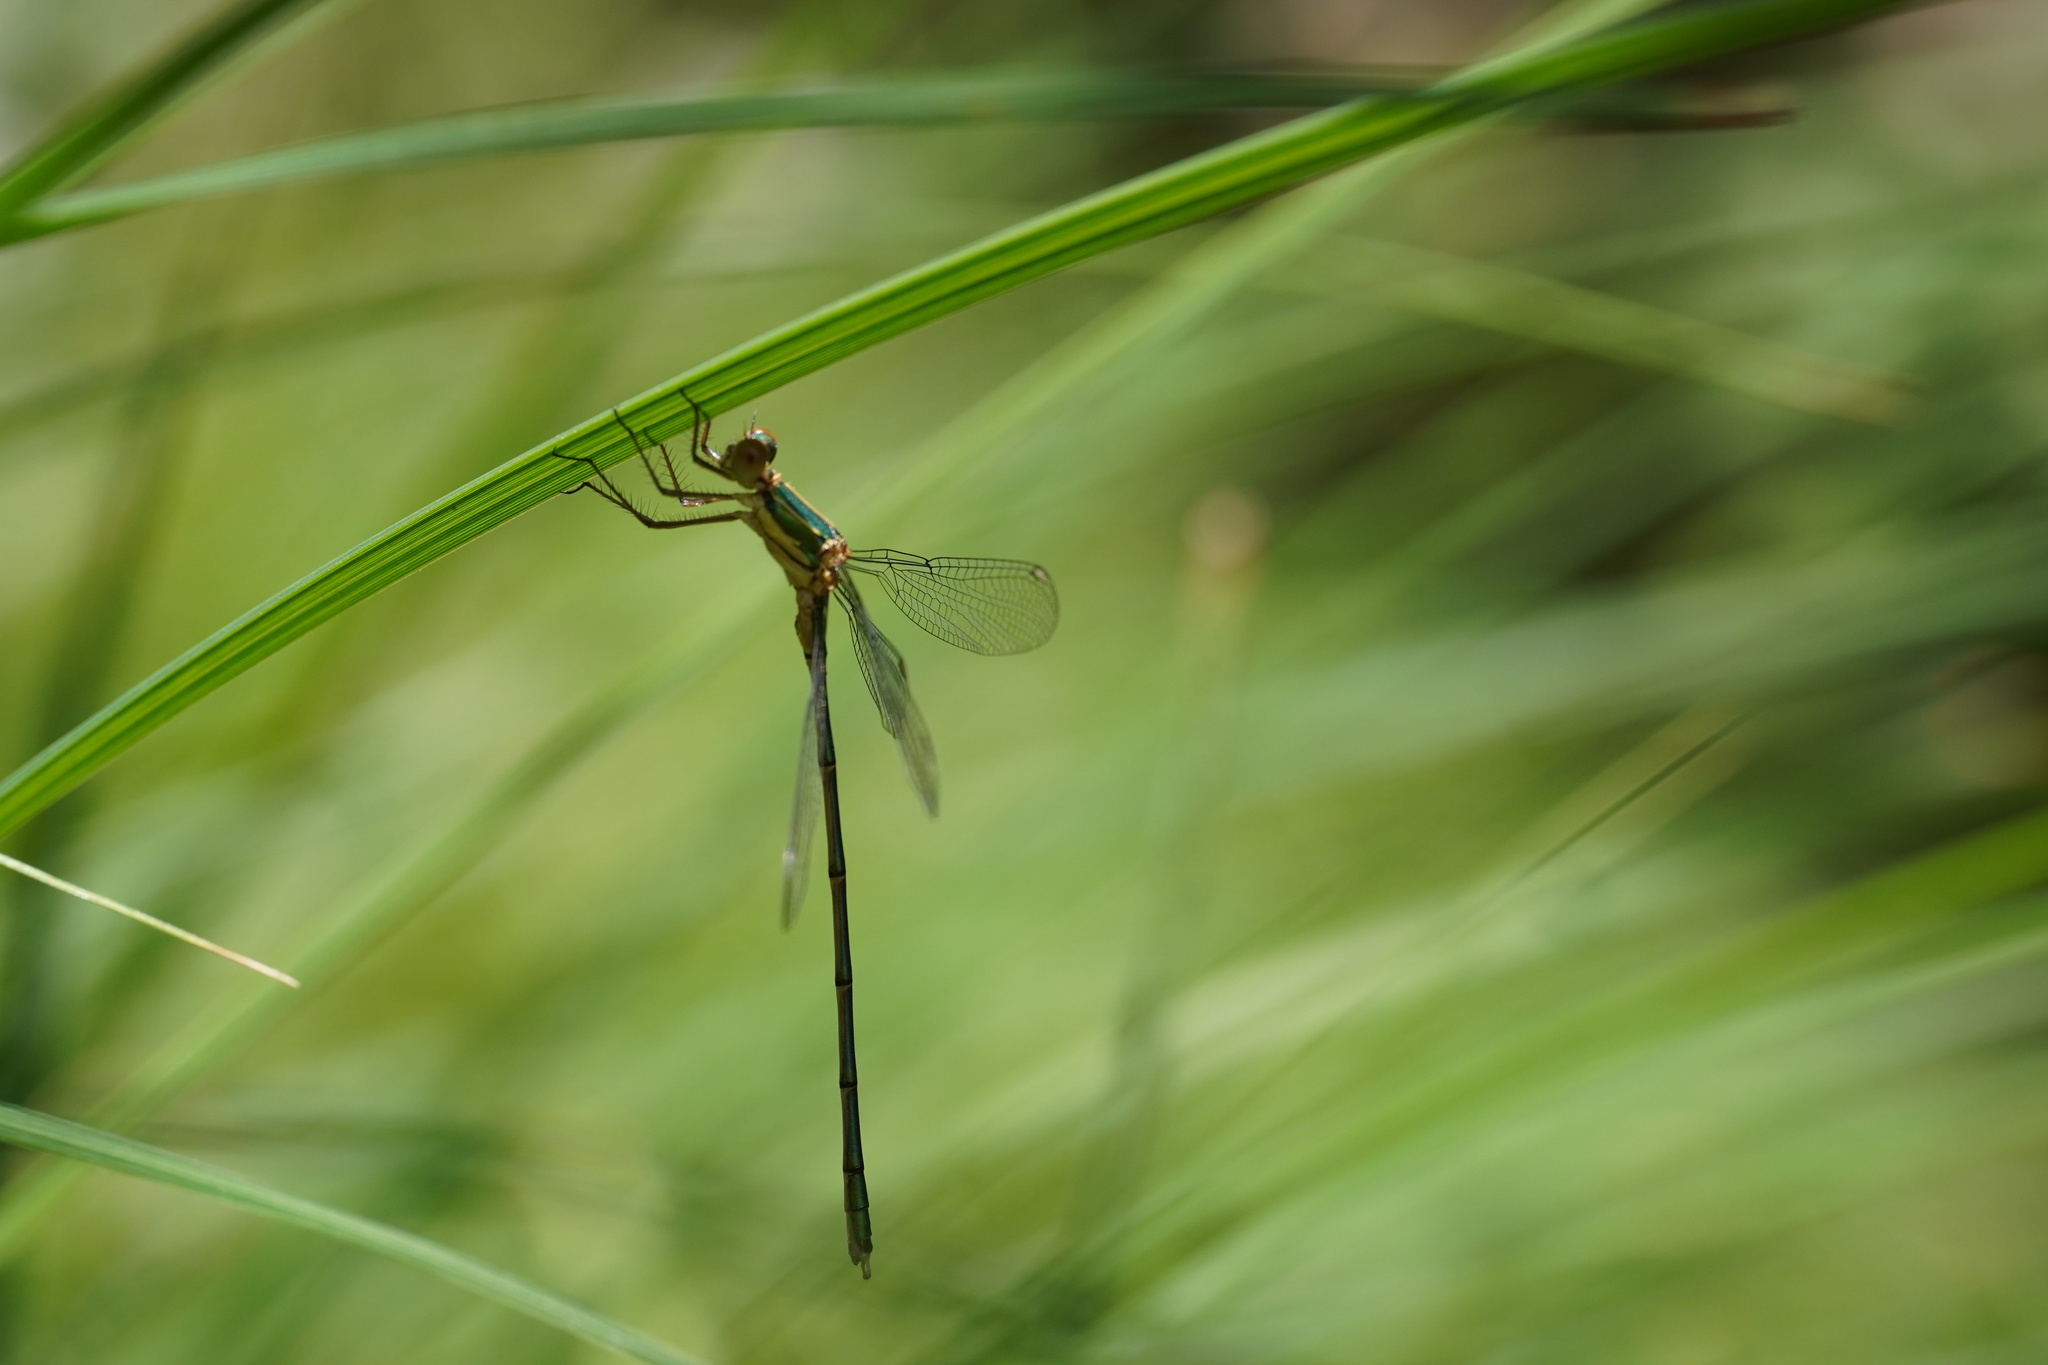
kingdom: Animalia
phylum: Arthropoda
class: Insecta
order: Odonata
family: Lestidae
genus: Chalcolestes
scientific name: Chalcolestes viridis
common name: Green emerald damselfly
